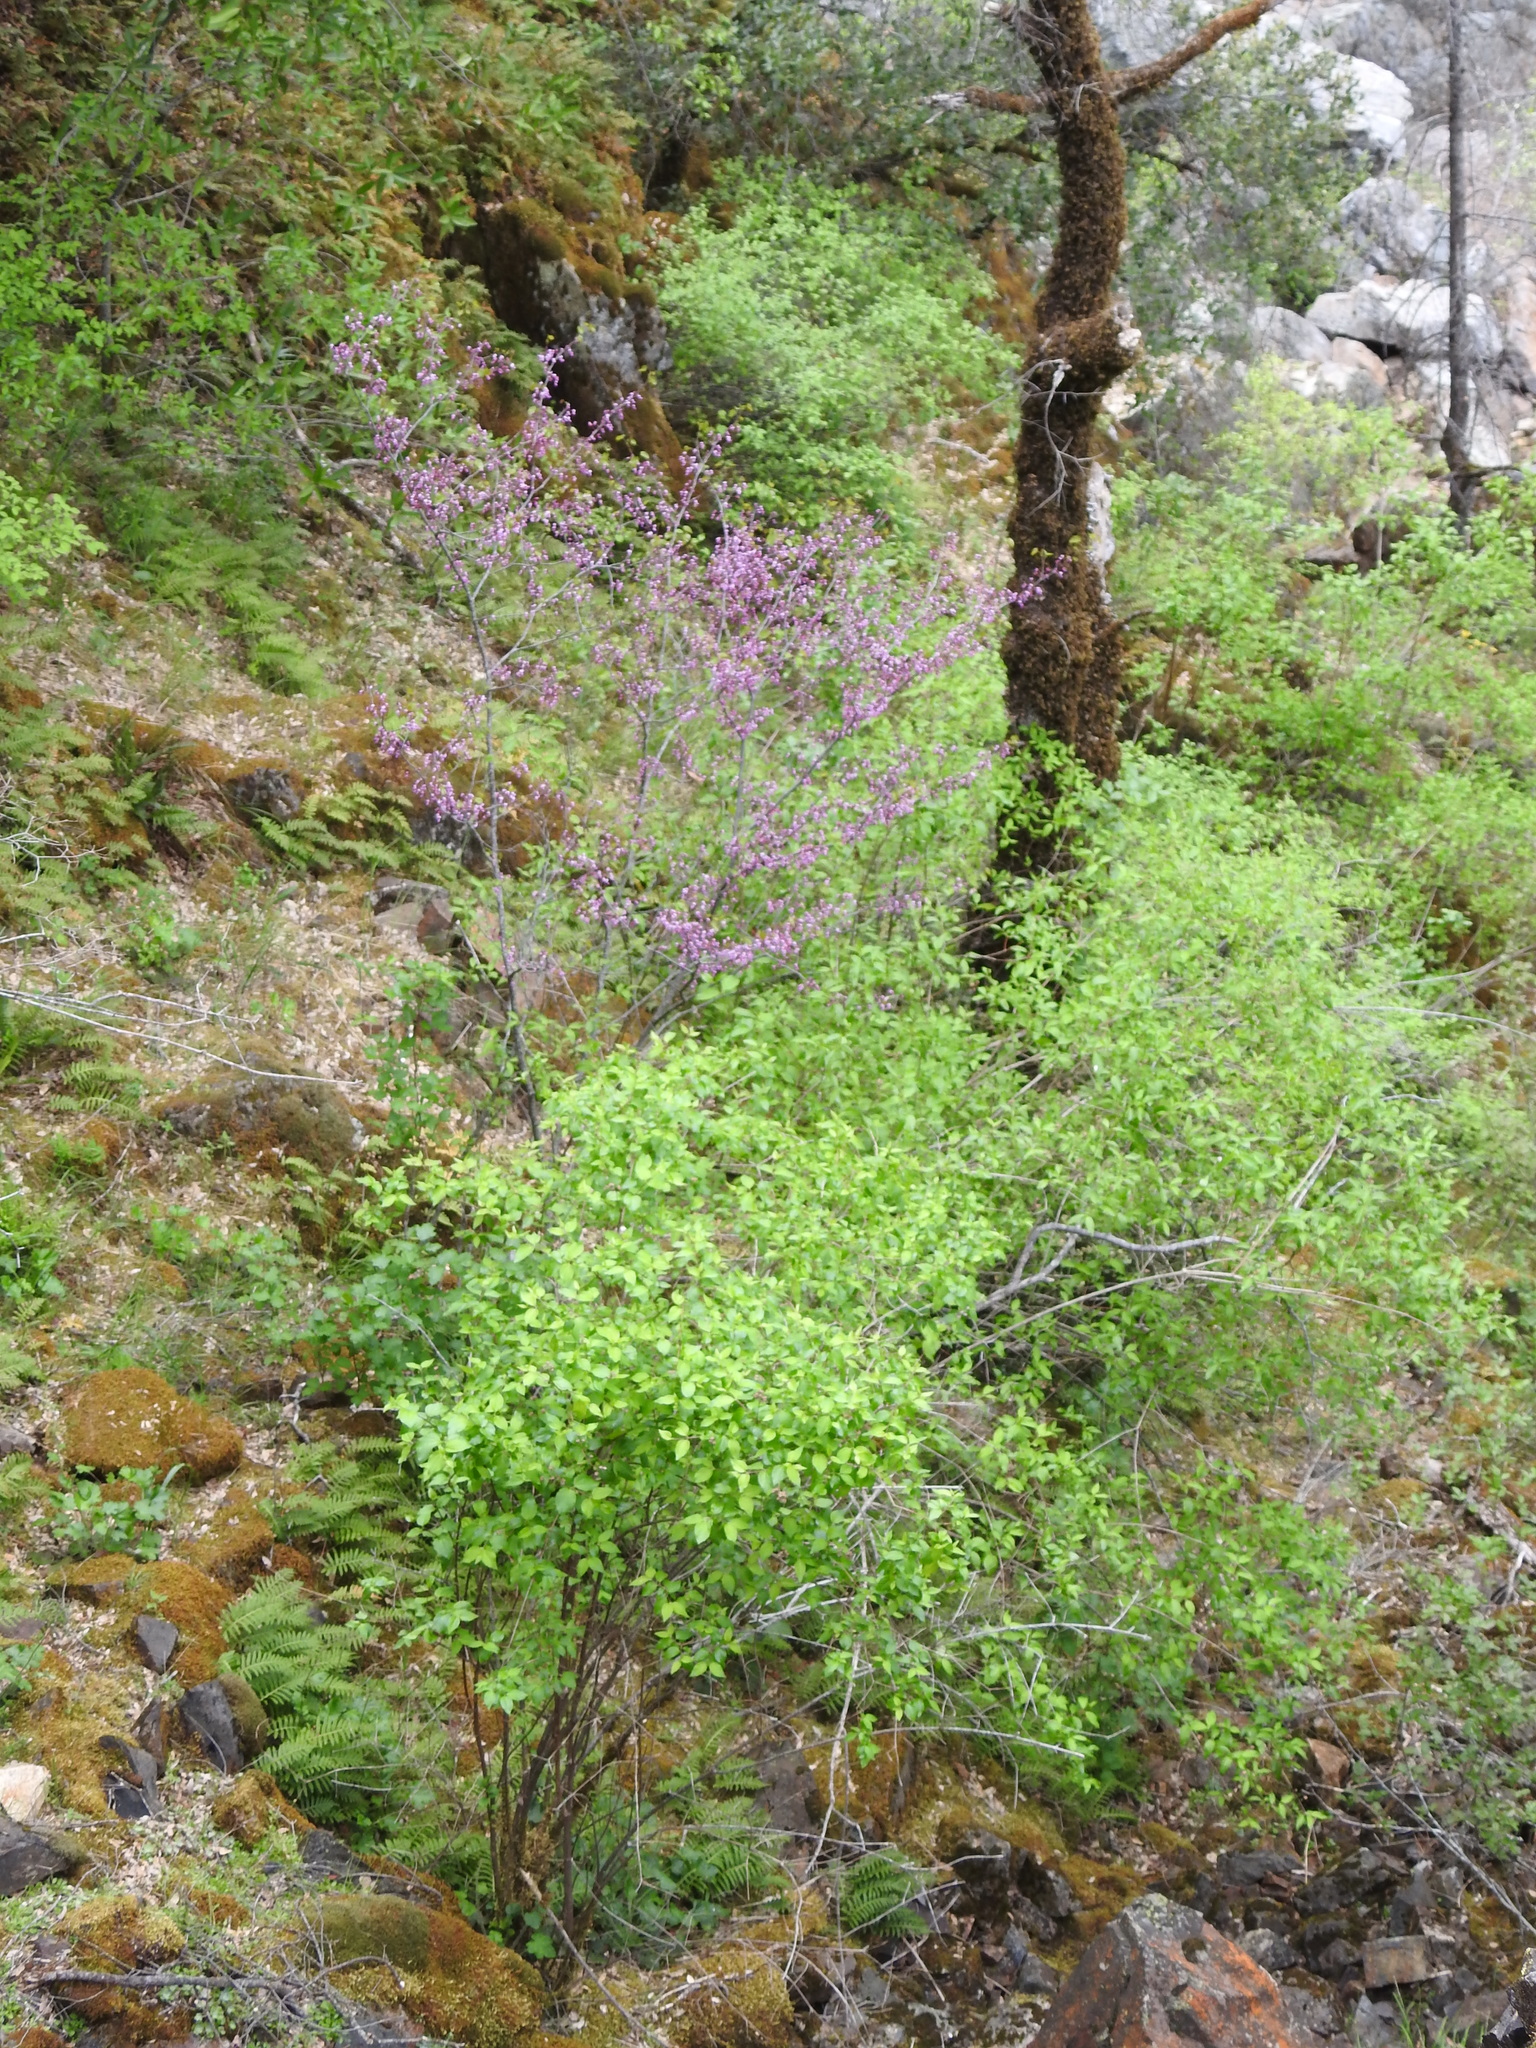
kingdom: Plantae
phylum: Tracheophyta
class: Magnoliopsida
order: Fabales
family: Fabaceae
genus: Cercis
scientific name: Cercis occidentalis
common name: California redbud
